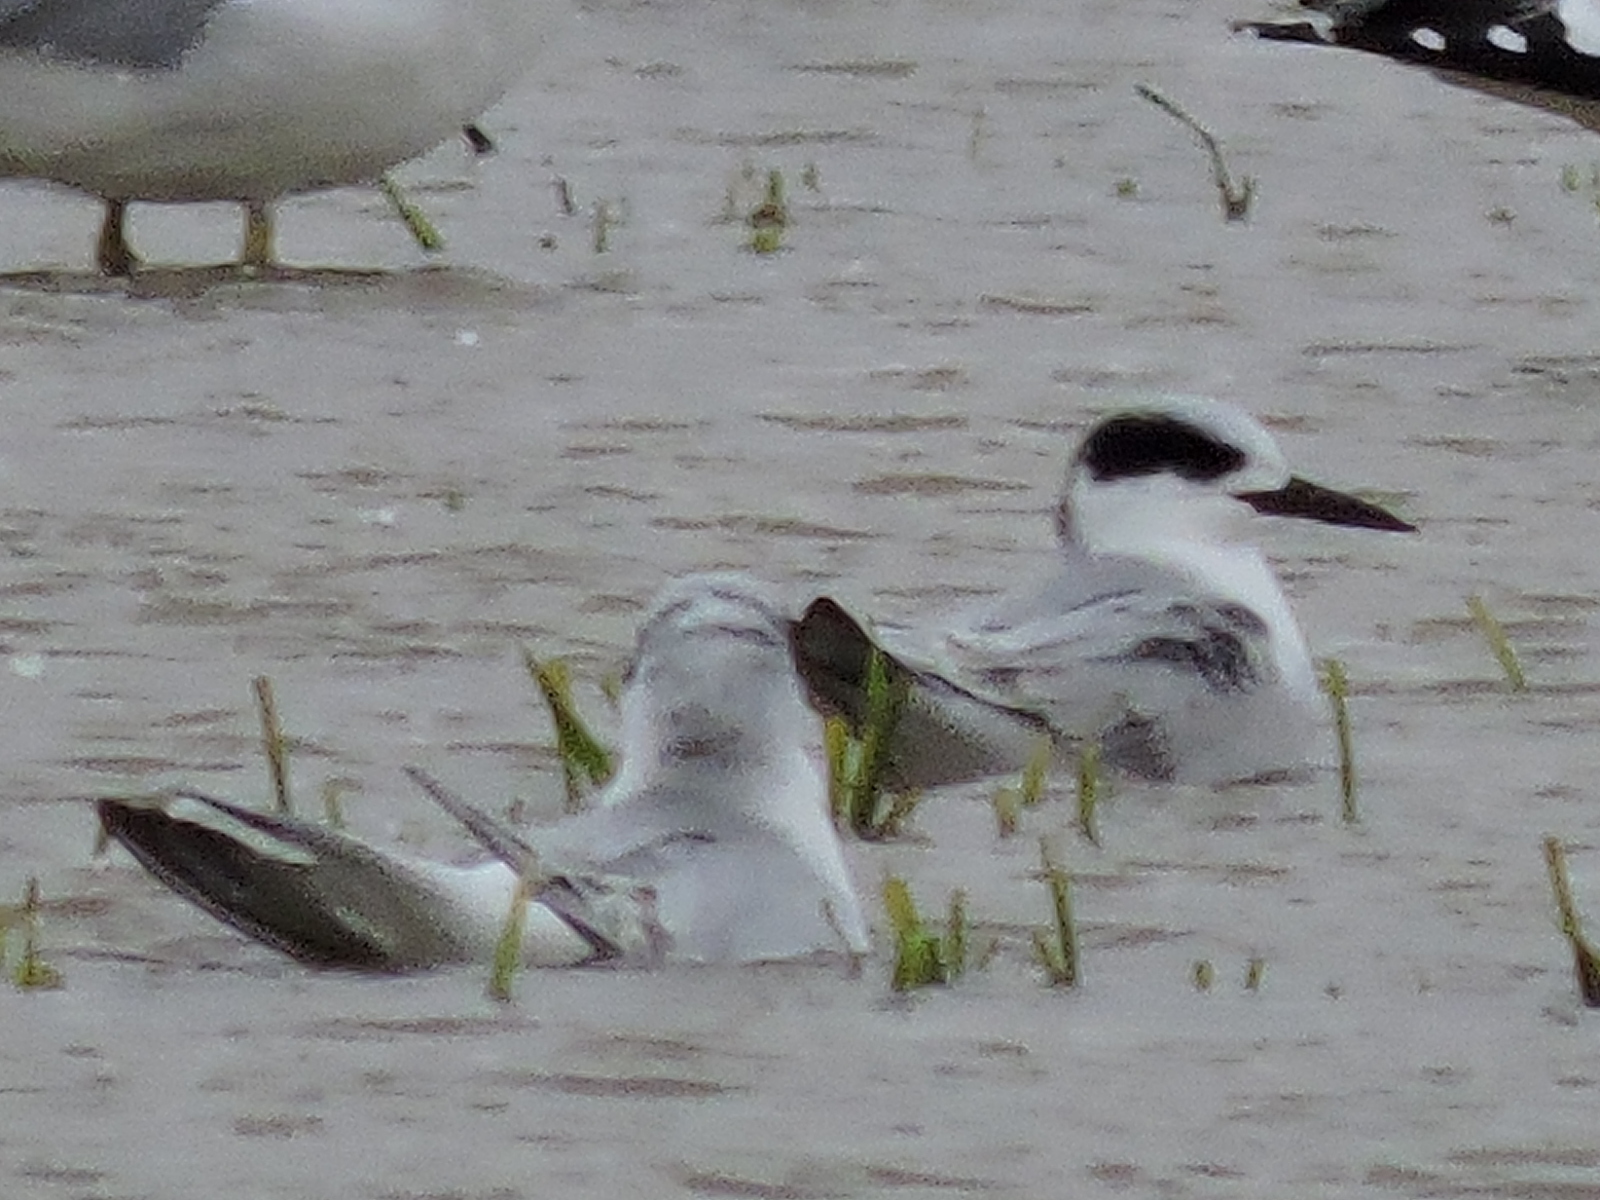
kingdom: Animalia
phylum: Chordata
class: Aves
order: Charadriiformes
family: Laridae
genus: Sterna
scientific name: Sterna forsteri
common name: Forster's tern
